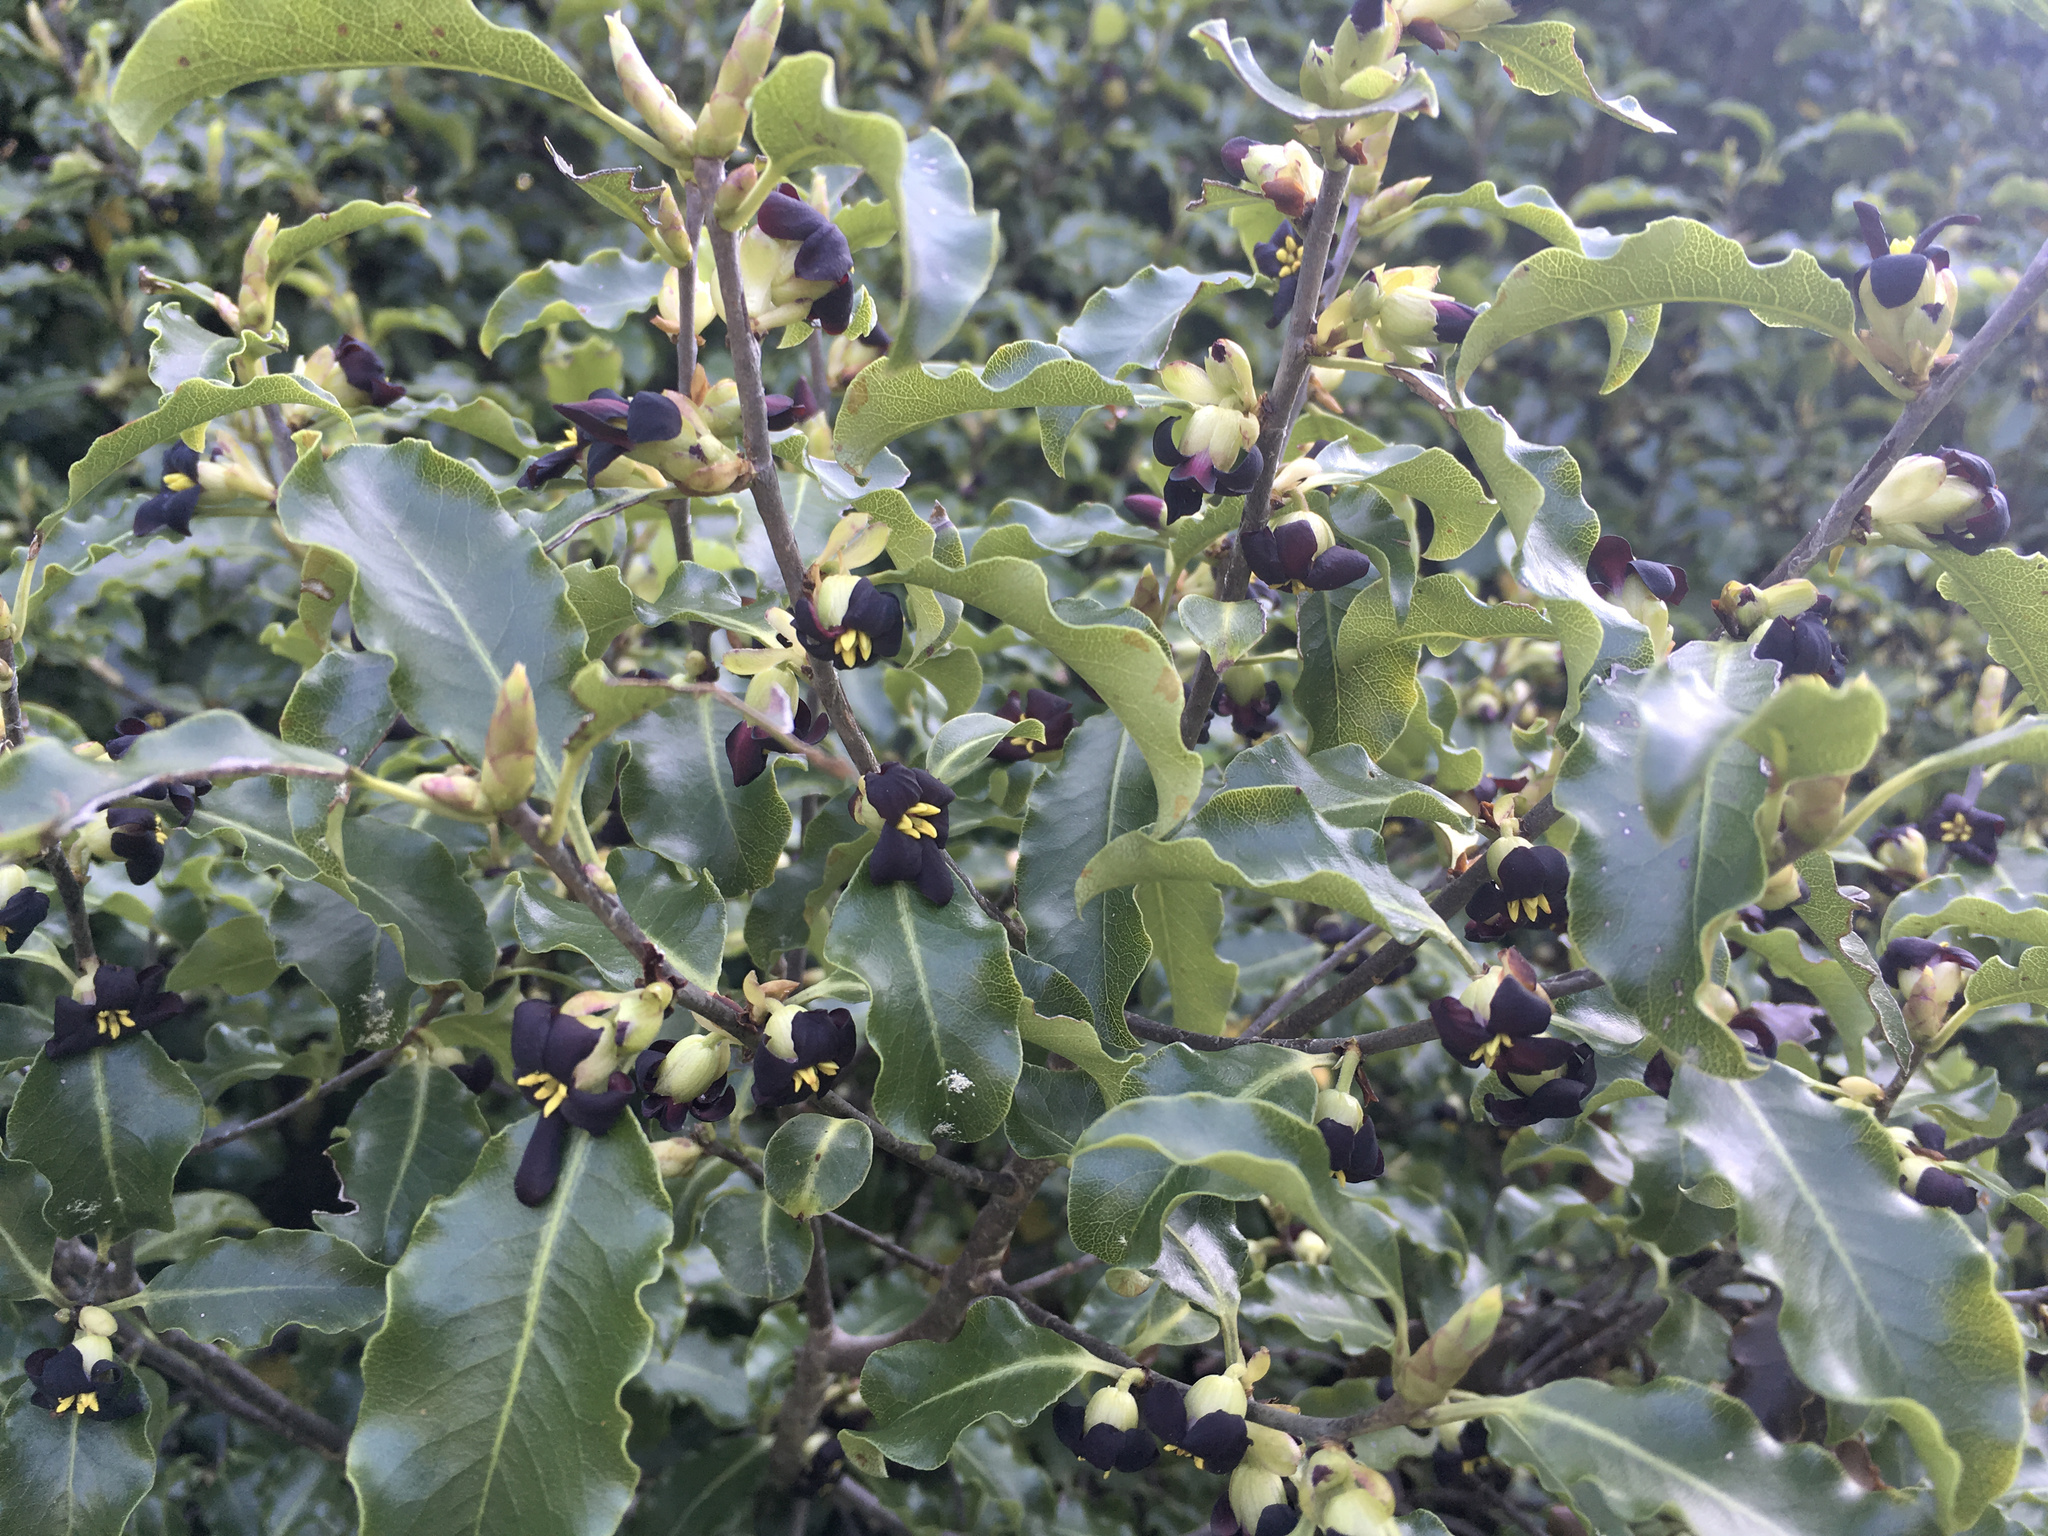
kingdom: Plantae
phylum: Tracheophyta
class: Magnoliopsida
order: Apiales
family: Pittosporaceae
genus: Pittosporum
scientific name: Pittosporum tenuifolium
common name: Kohuhu
